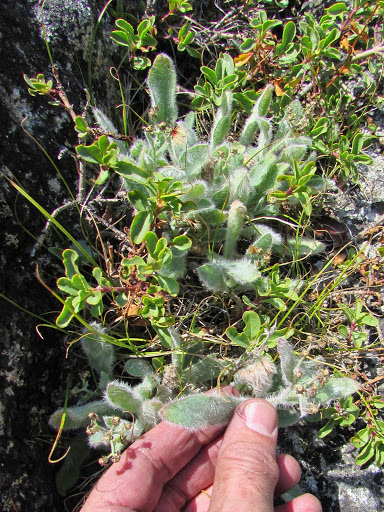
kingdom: Plantae
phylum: Tracheophyta
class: Magnoliopsida
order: Asterales
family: Asteraceae
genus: Hieracium
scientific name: Hieracium horridum
